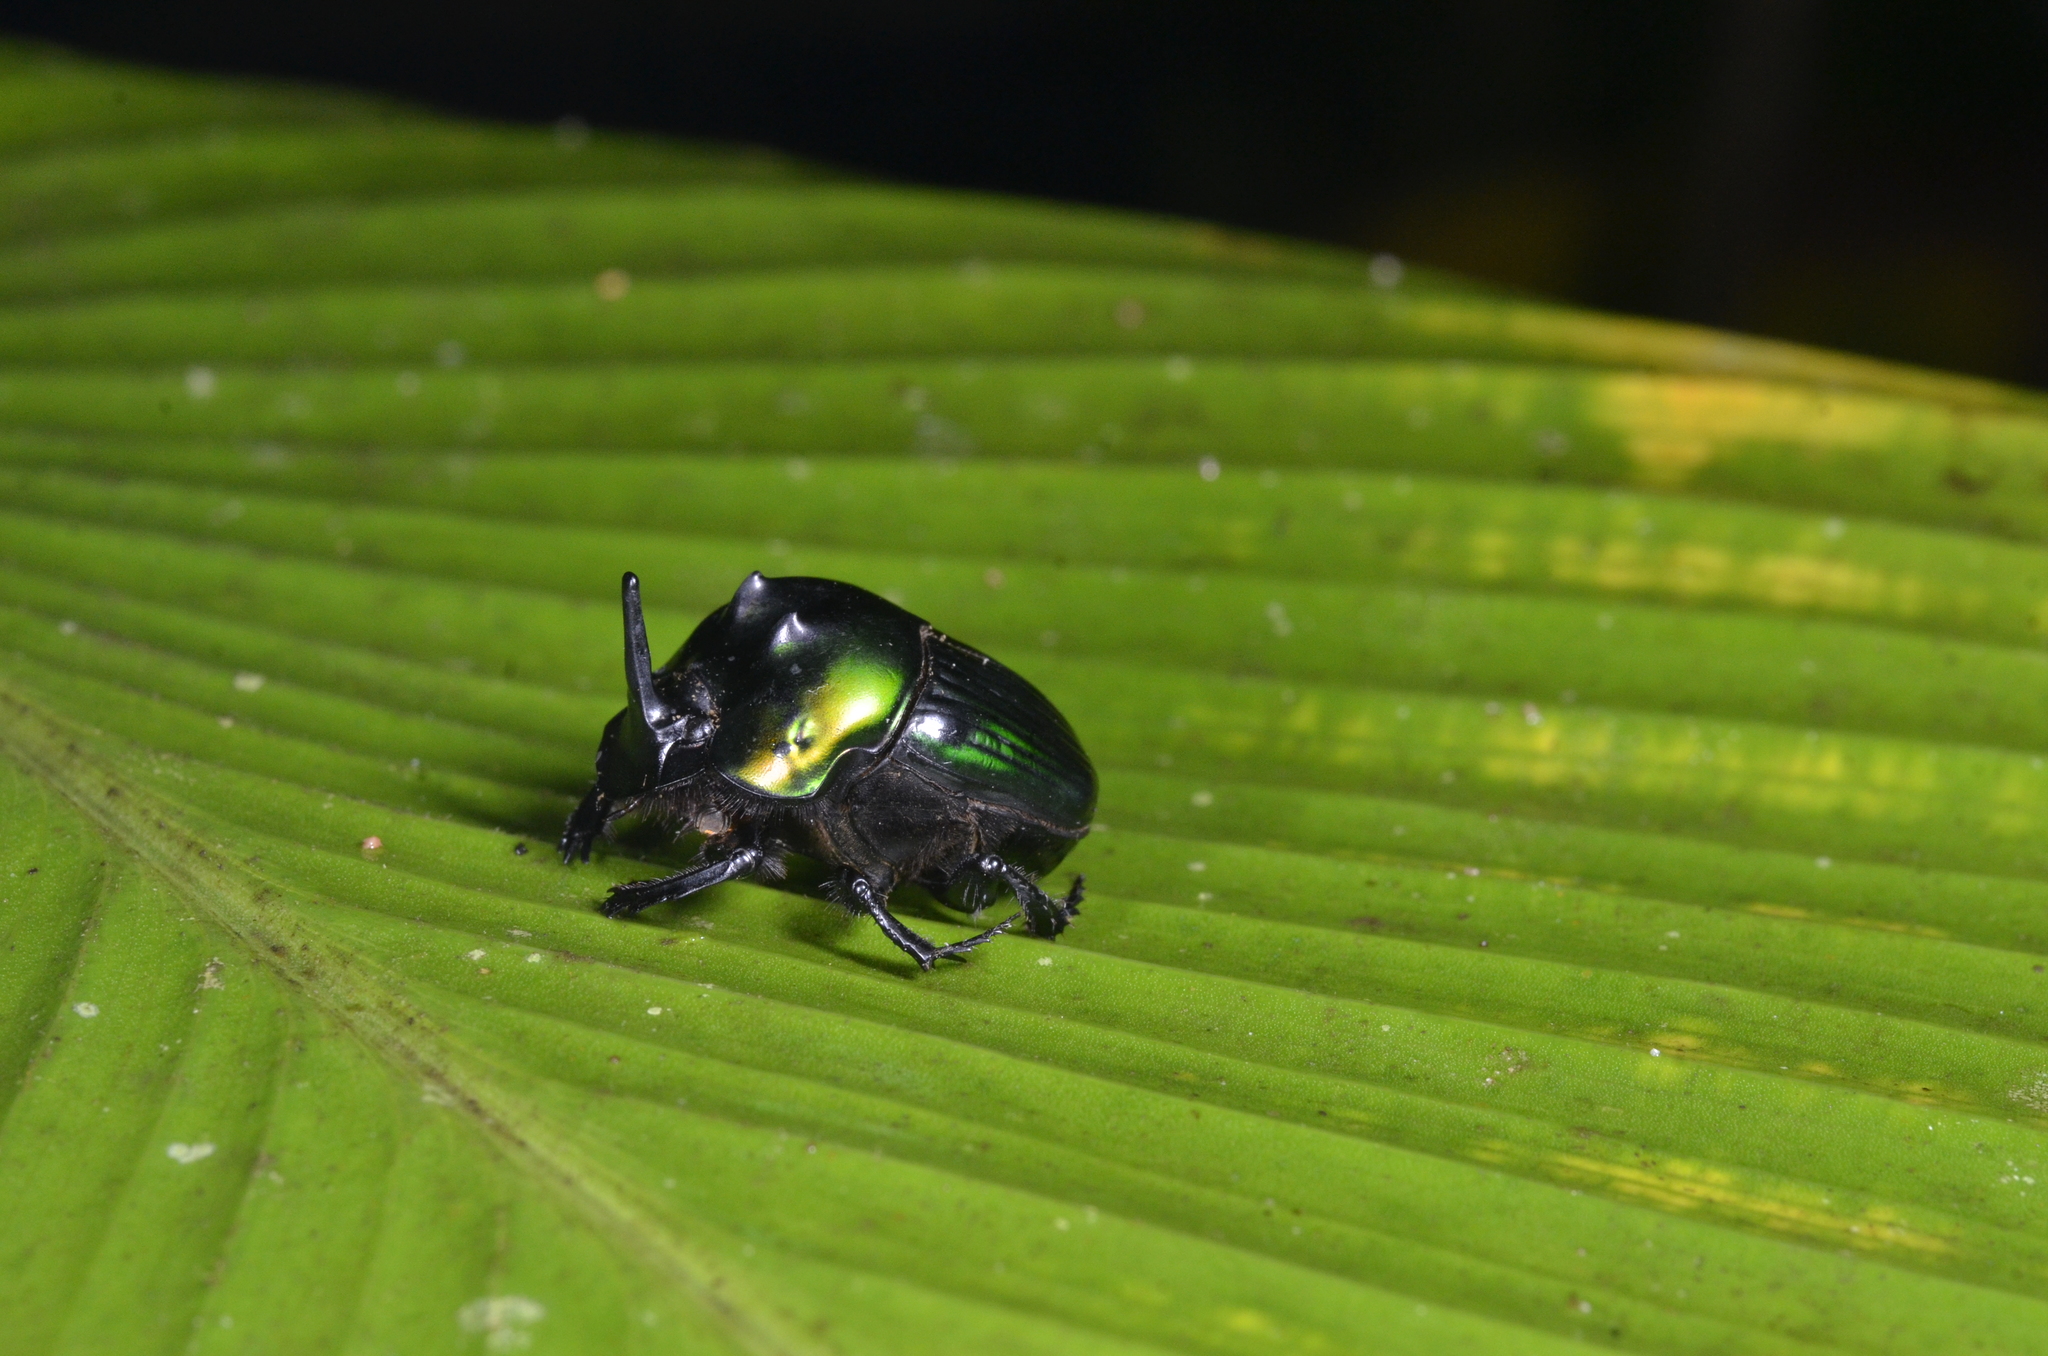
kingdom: Animalia
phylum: Arthropoda
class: Insecta
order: Coleoptera
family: Scarabaeidae
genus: Oxysternon
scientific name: Oxysternon silenus
